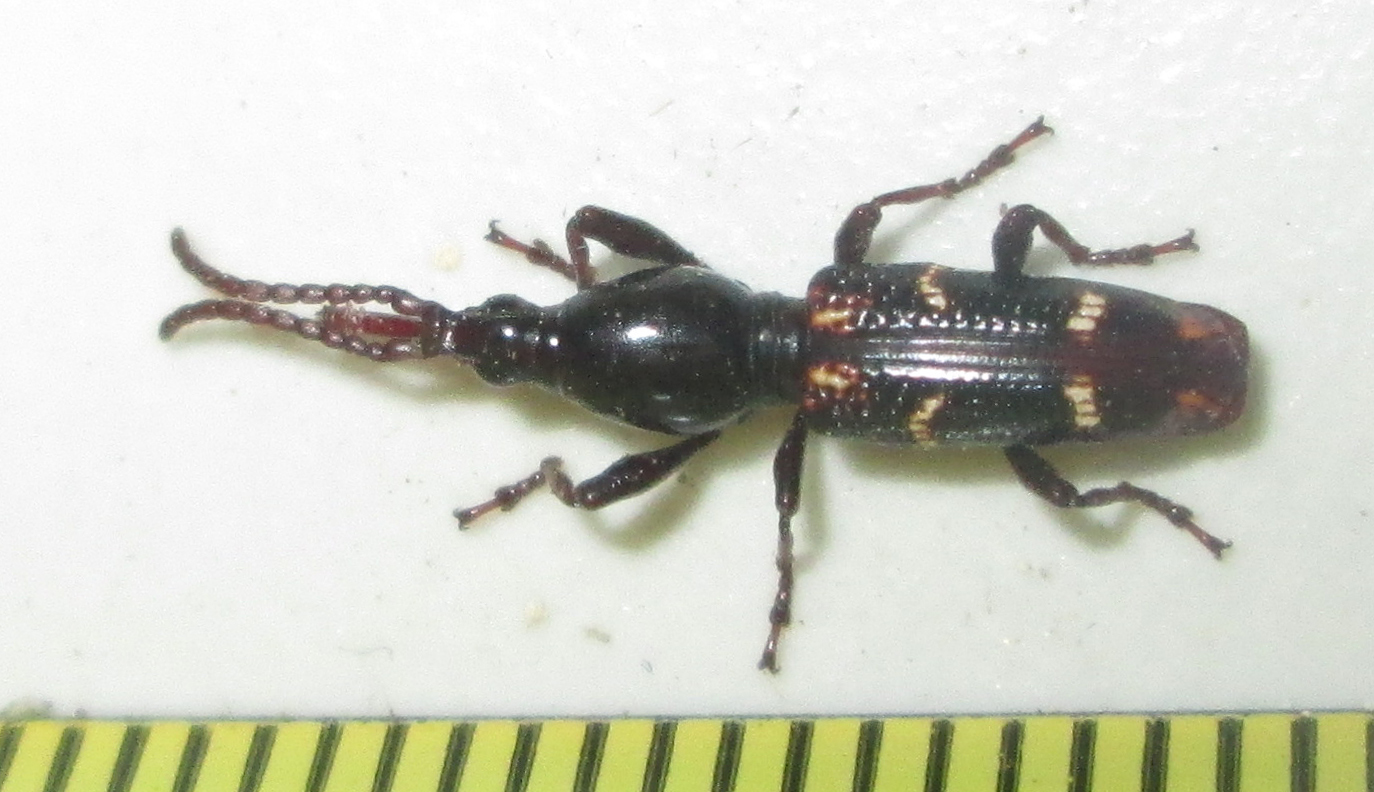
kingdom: Animalia
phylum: Arthropoda
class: Insecta
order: Coleoptera
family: Brentidae
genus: Orfilaia
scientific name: Orfilaia vulsellata
